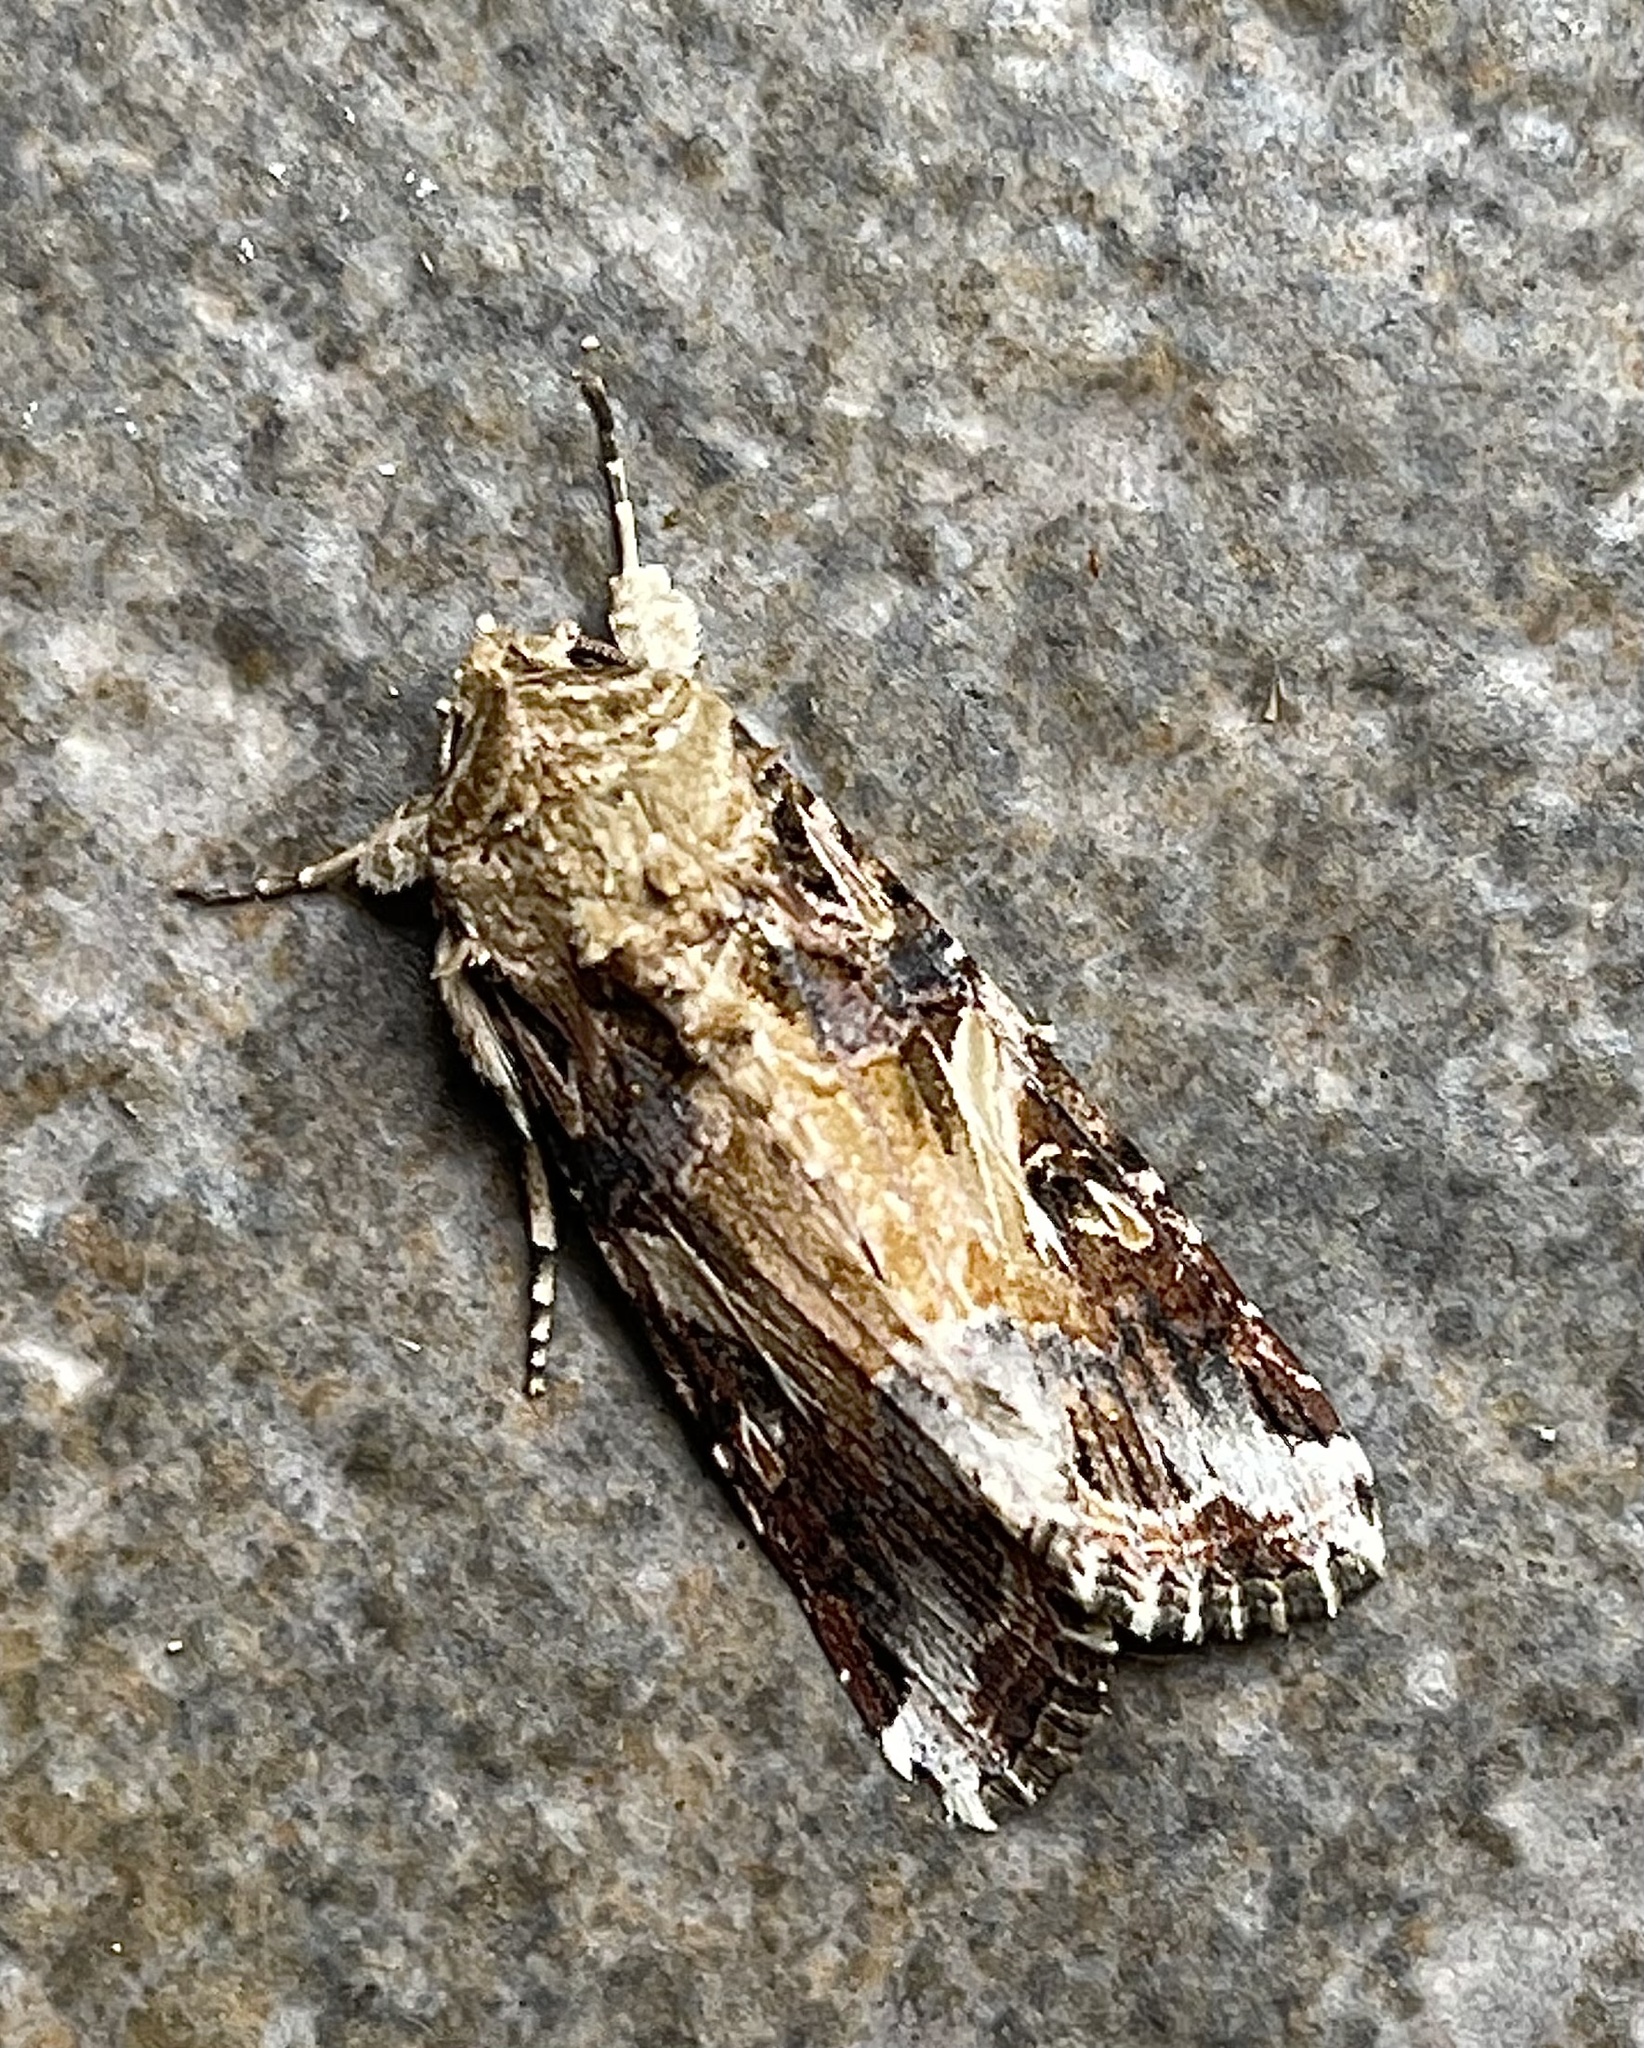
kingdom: Animalia
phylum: Arthropoda
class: Insecta
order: Lepidoptera
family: Noctuidae
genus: Spodoptera
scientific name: Spodoptera ornithogalli
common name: Yellow-striped armyworm
